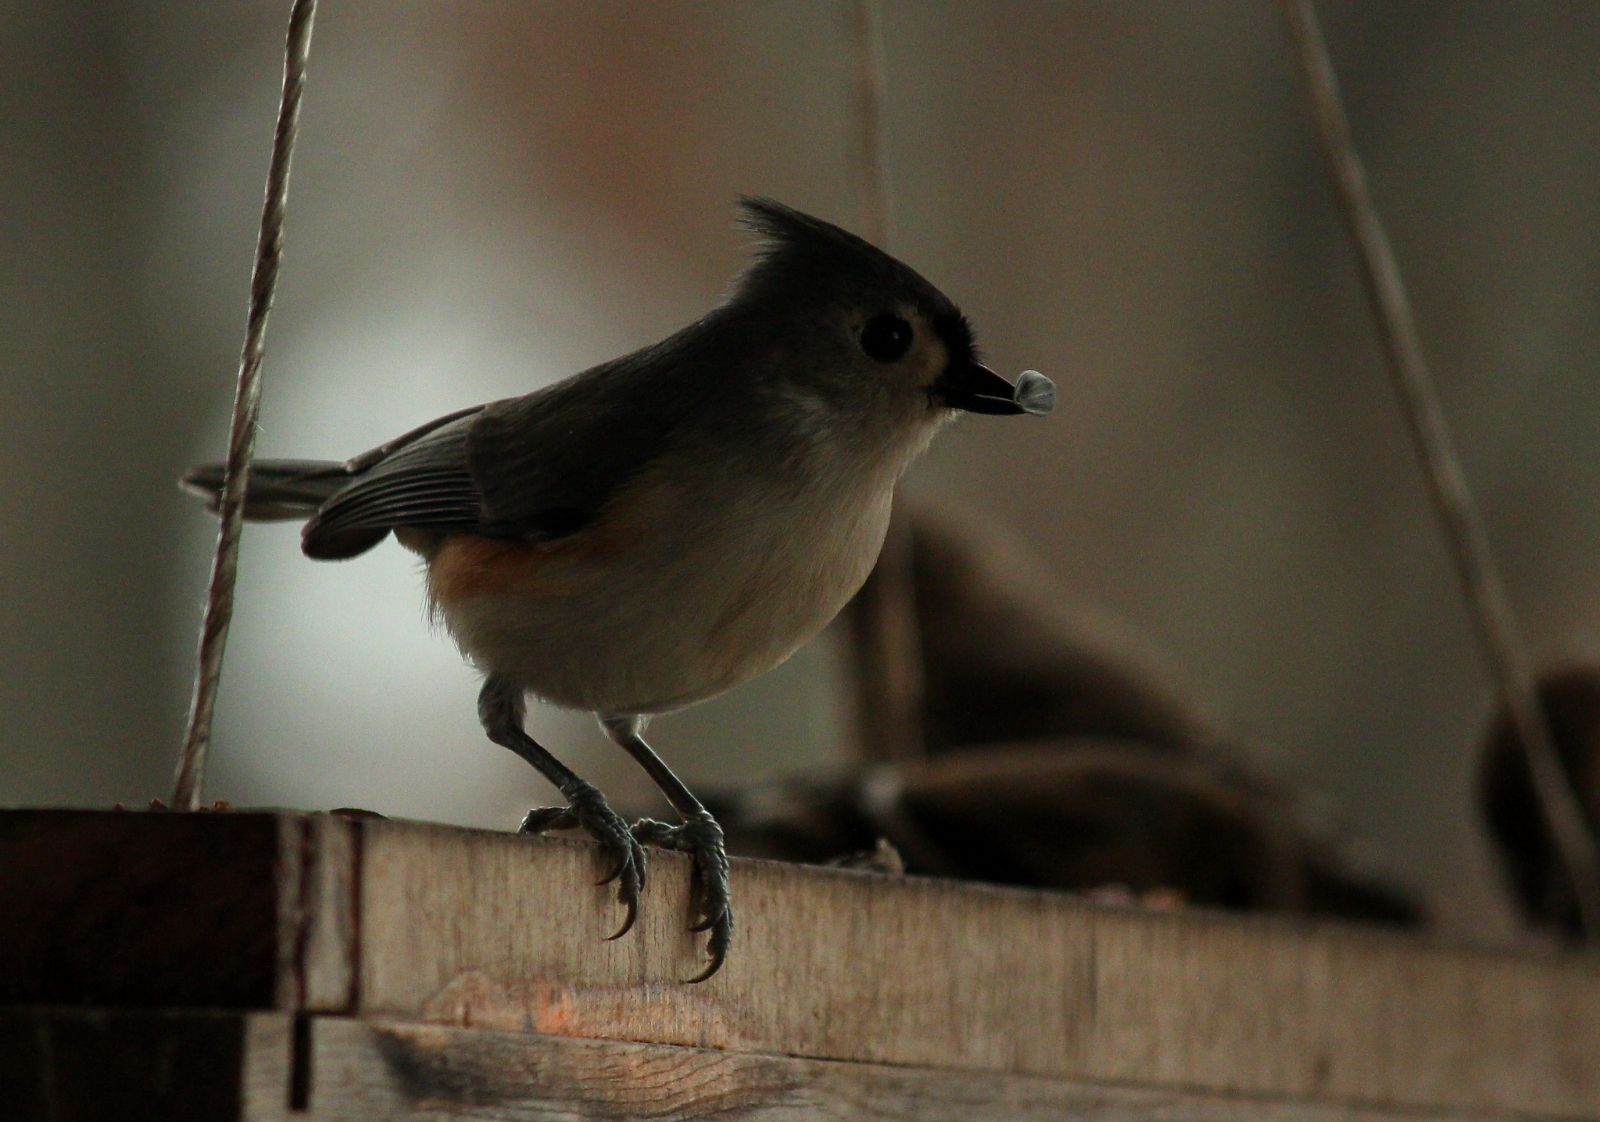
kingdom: Animalia
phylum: Chordata
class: Aves
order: Passeriformes
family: Paridae
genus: Baeolophus
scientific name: Baeolophus bicolor
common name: Tufted titmouse
